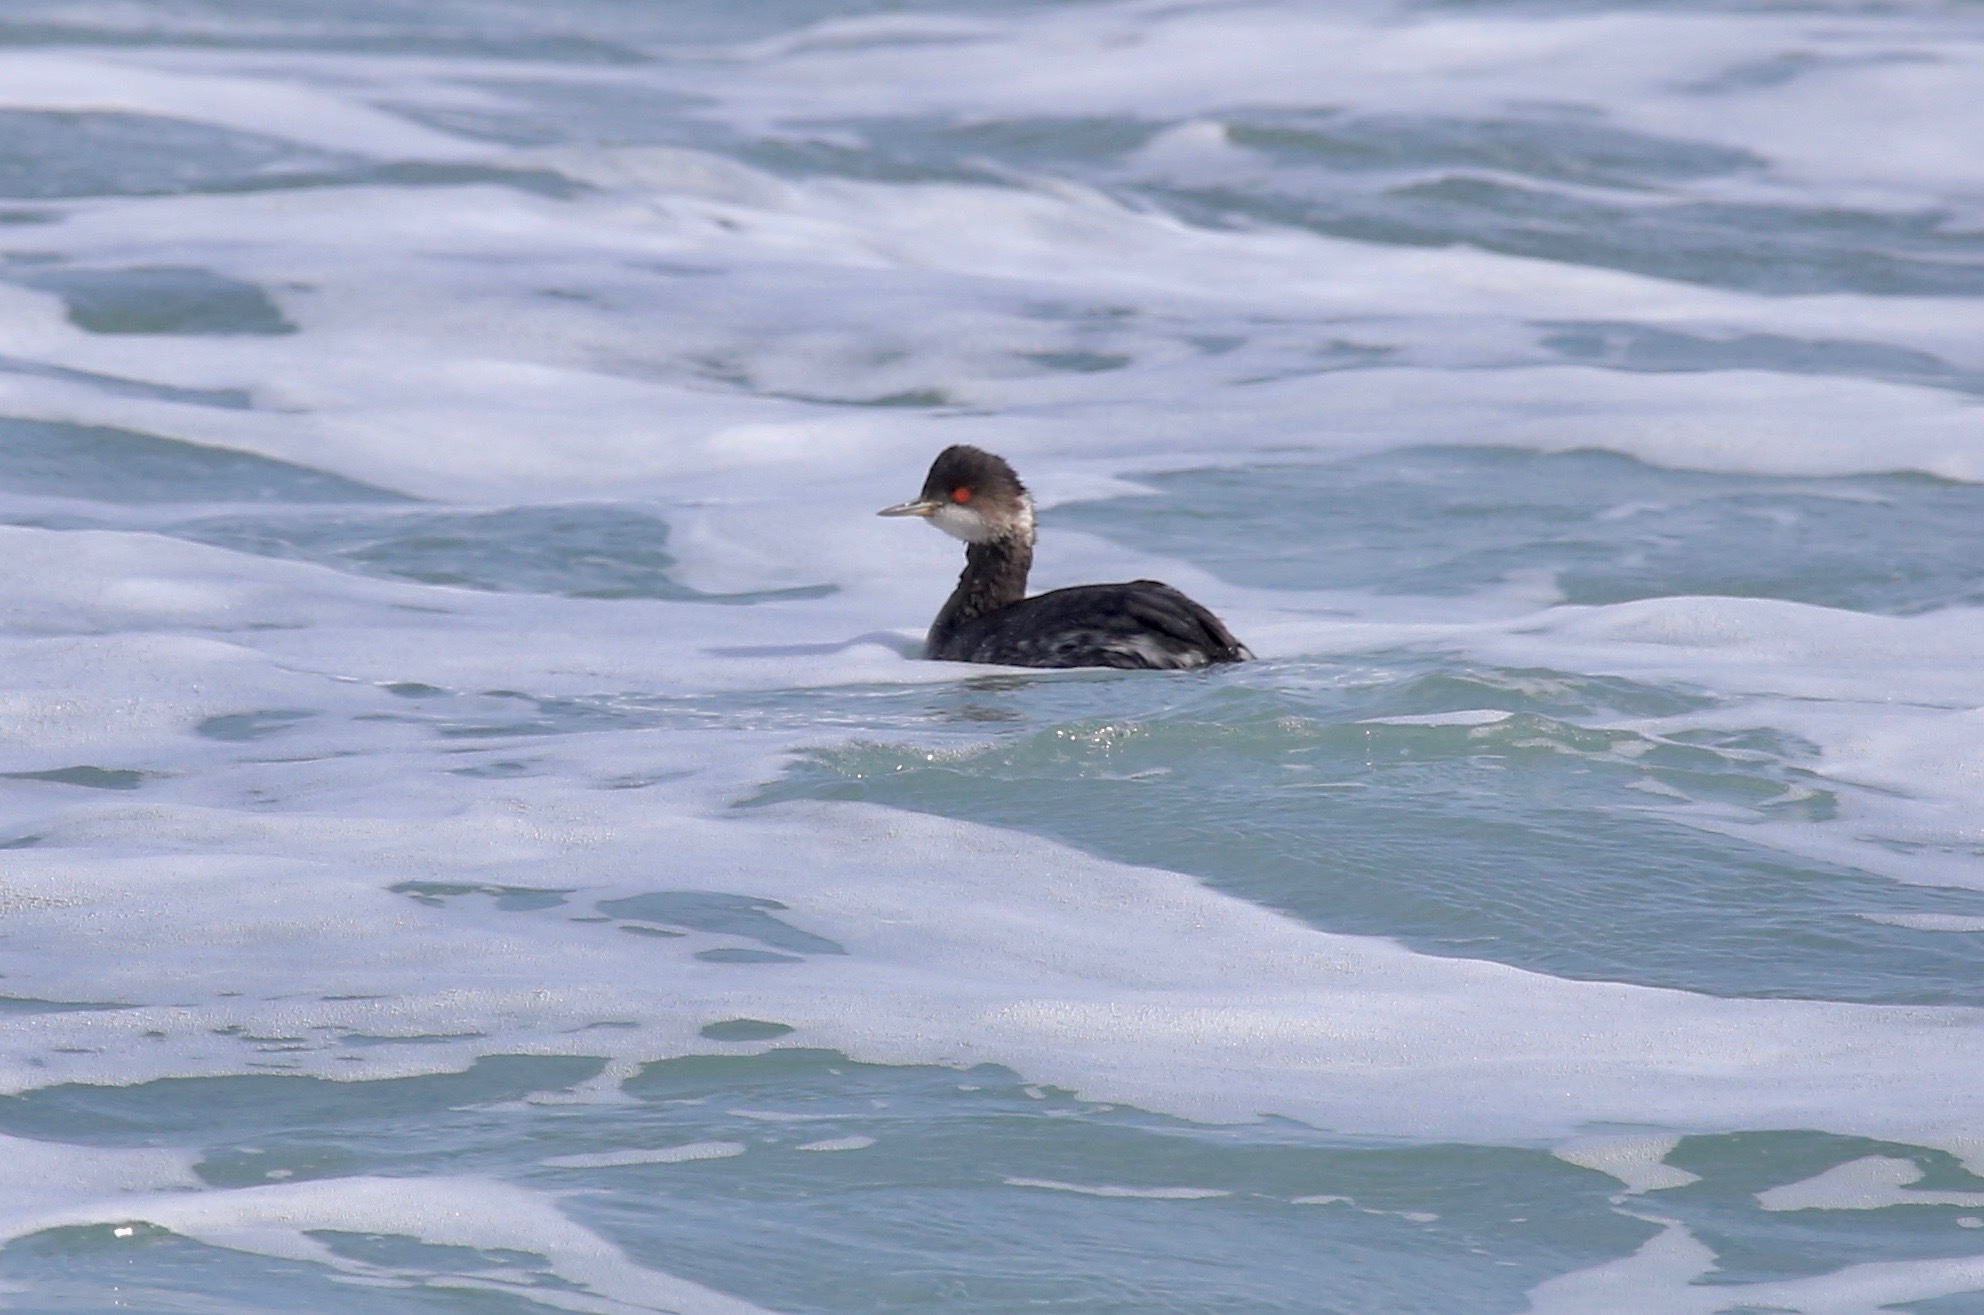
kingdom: Animalia
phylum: Chordata
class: Aves
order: Podicipediformes
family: Podicipedidae
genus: Podiceps
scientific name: Podiceps nigricollis
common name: Black-necked grebe
